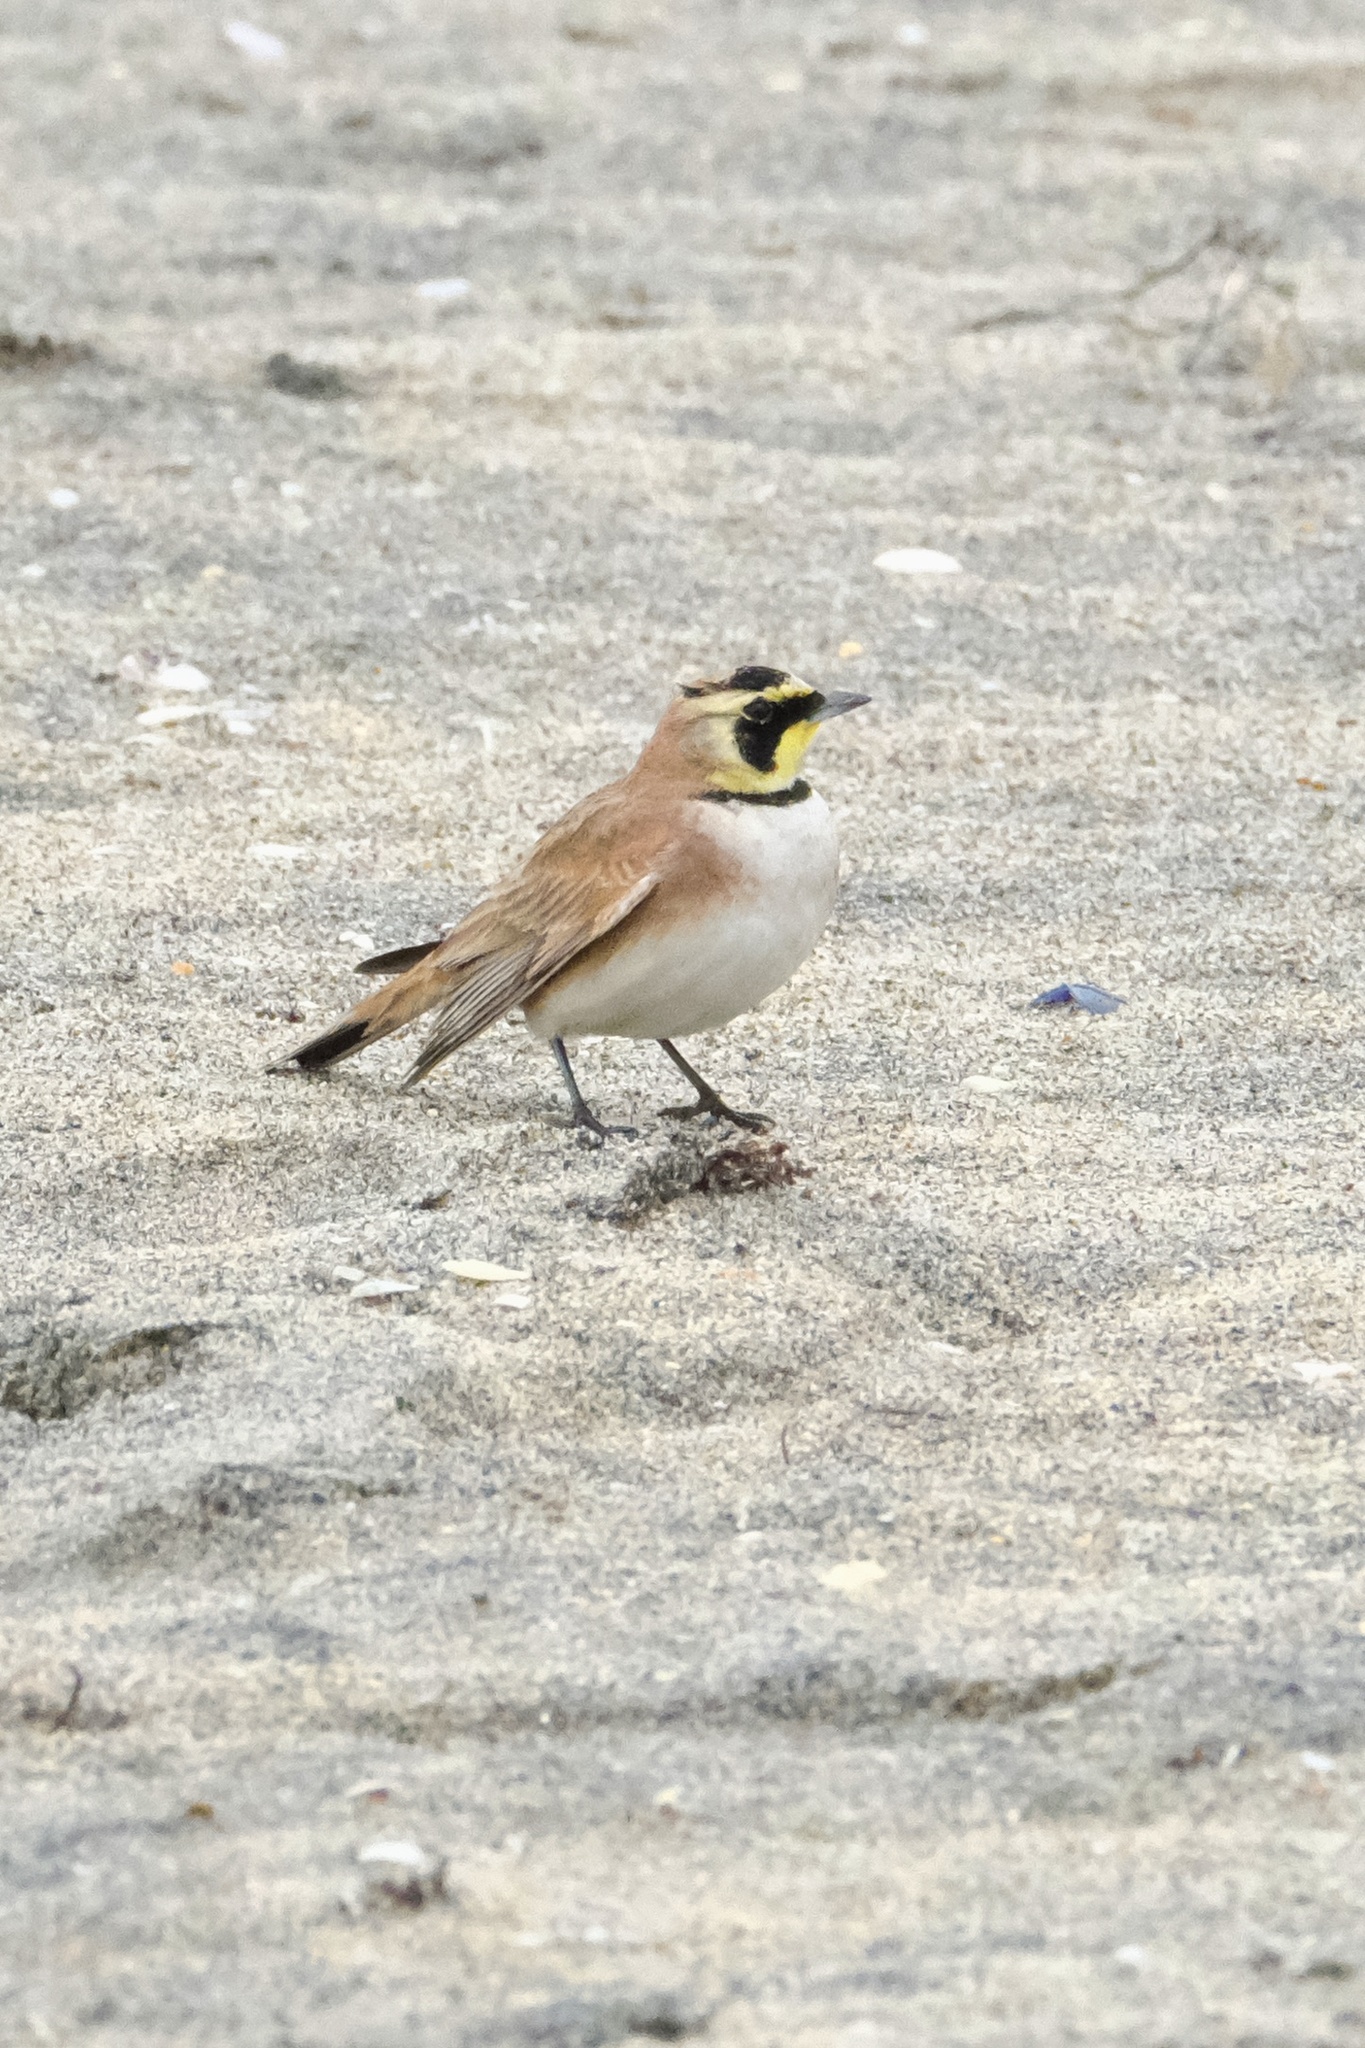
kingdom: Animalia
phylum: Chordata
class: Aves
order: Passeriformes
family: Alaudidae
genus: Eremophila
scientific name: Eremophila alpestris
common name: Horned lark
